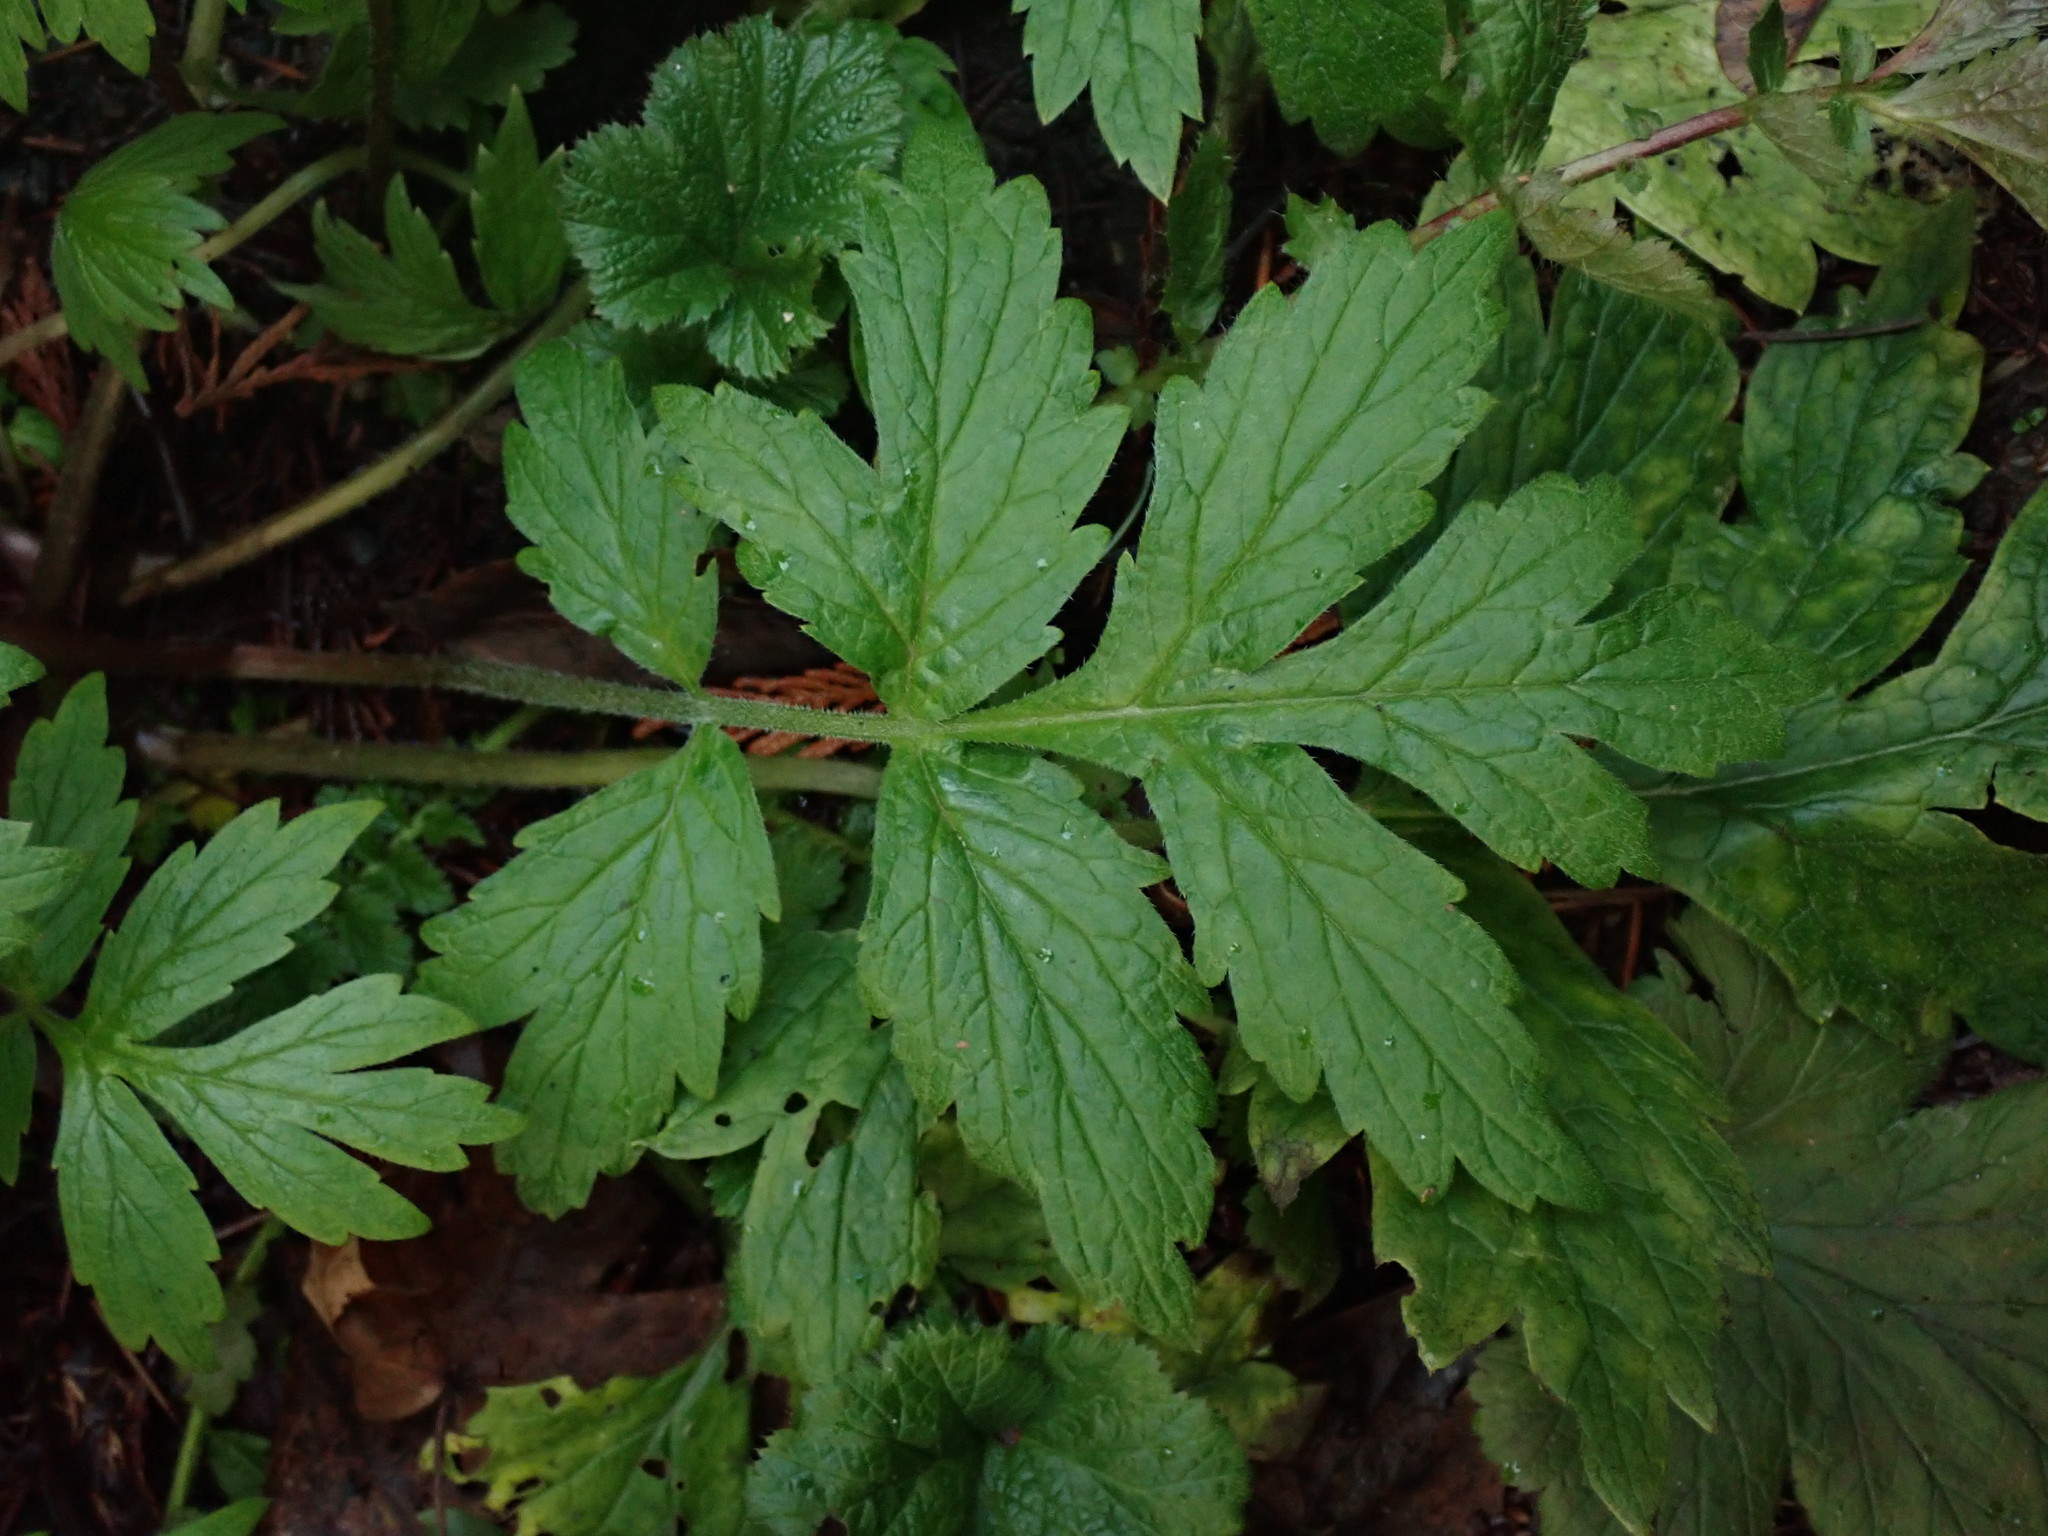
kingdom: Plantae
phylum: Tracheophyta
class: Magnoliopsida
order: Boraginales
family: Hydrophyllaceae
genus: Hydrophyllum
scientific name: Hydrophyllum tenuipes
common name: Pacific waterleaf
